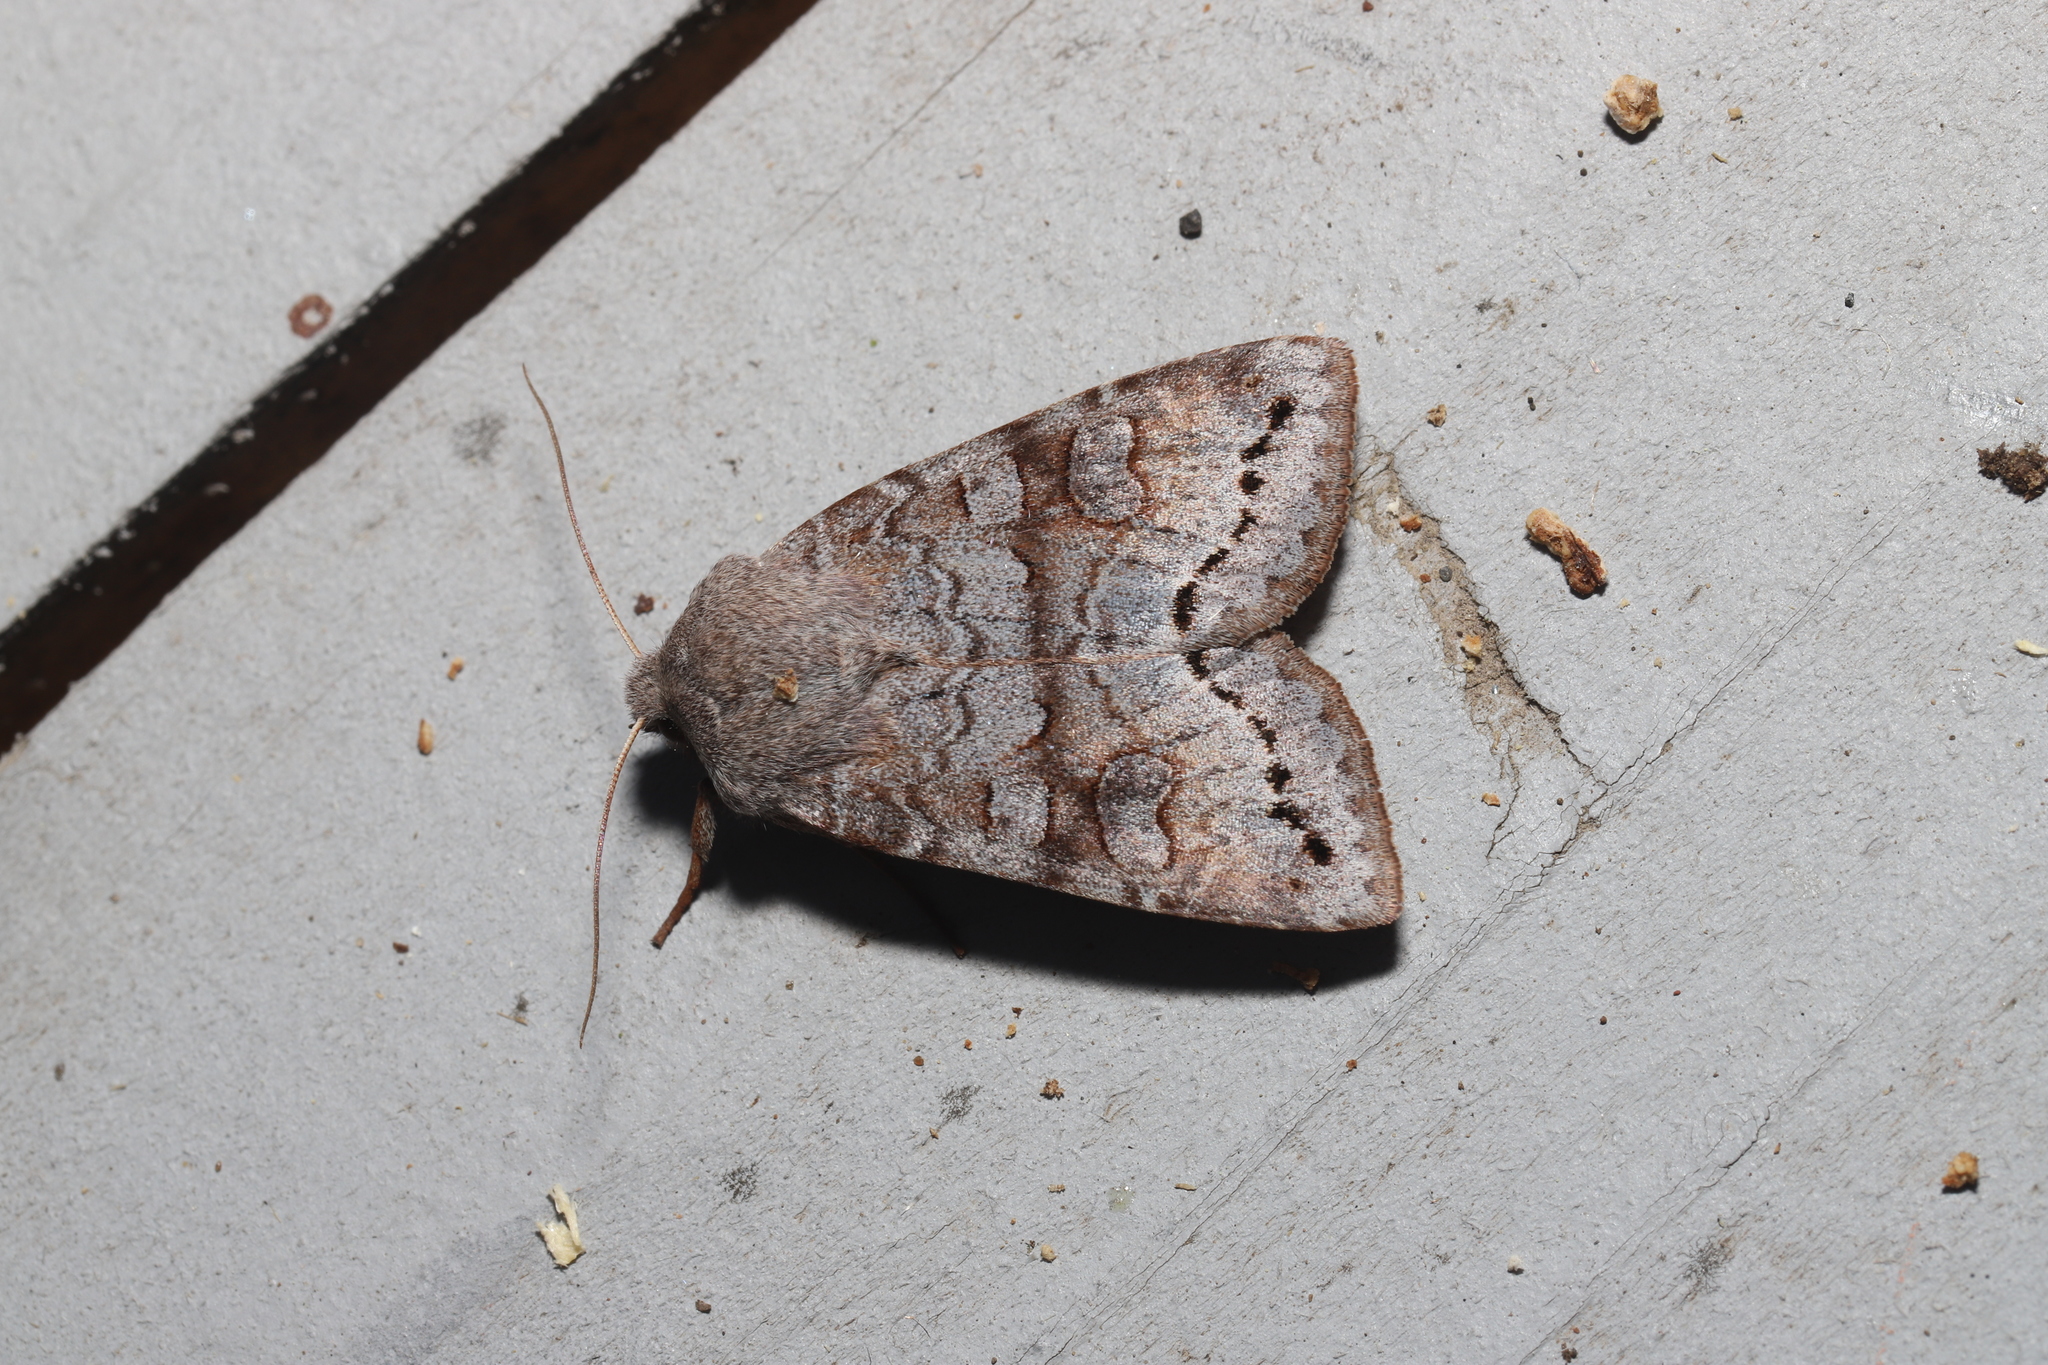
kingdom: Animalia
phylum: Arthropoda
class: Insecta
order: Lepidoptera
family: Noctuidae
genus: Orthosia
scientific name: Orthosia revicta
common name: Rusty whitesided caterpillar
